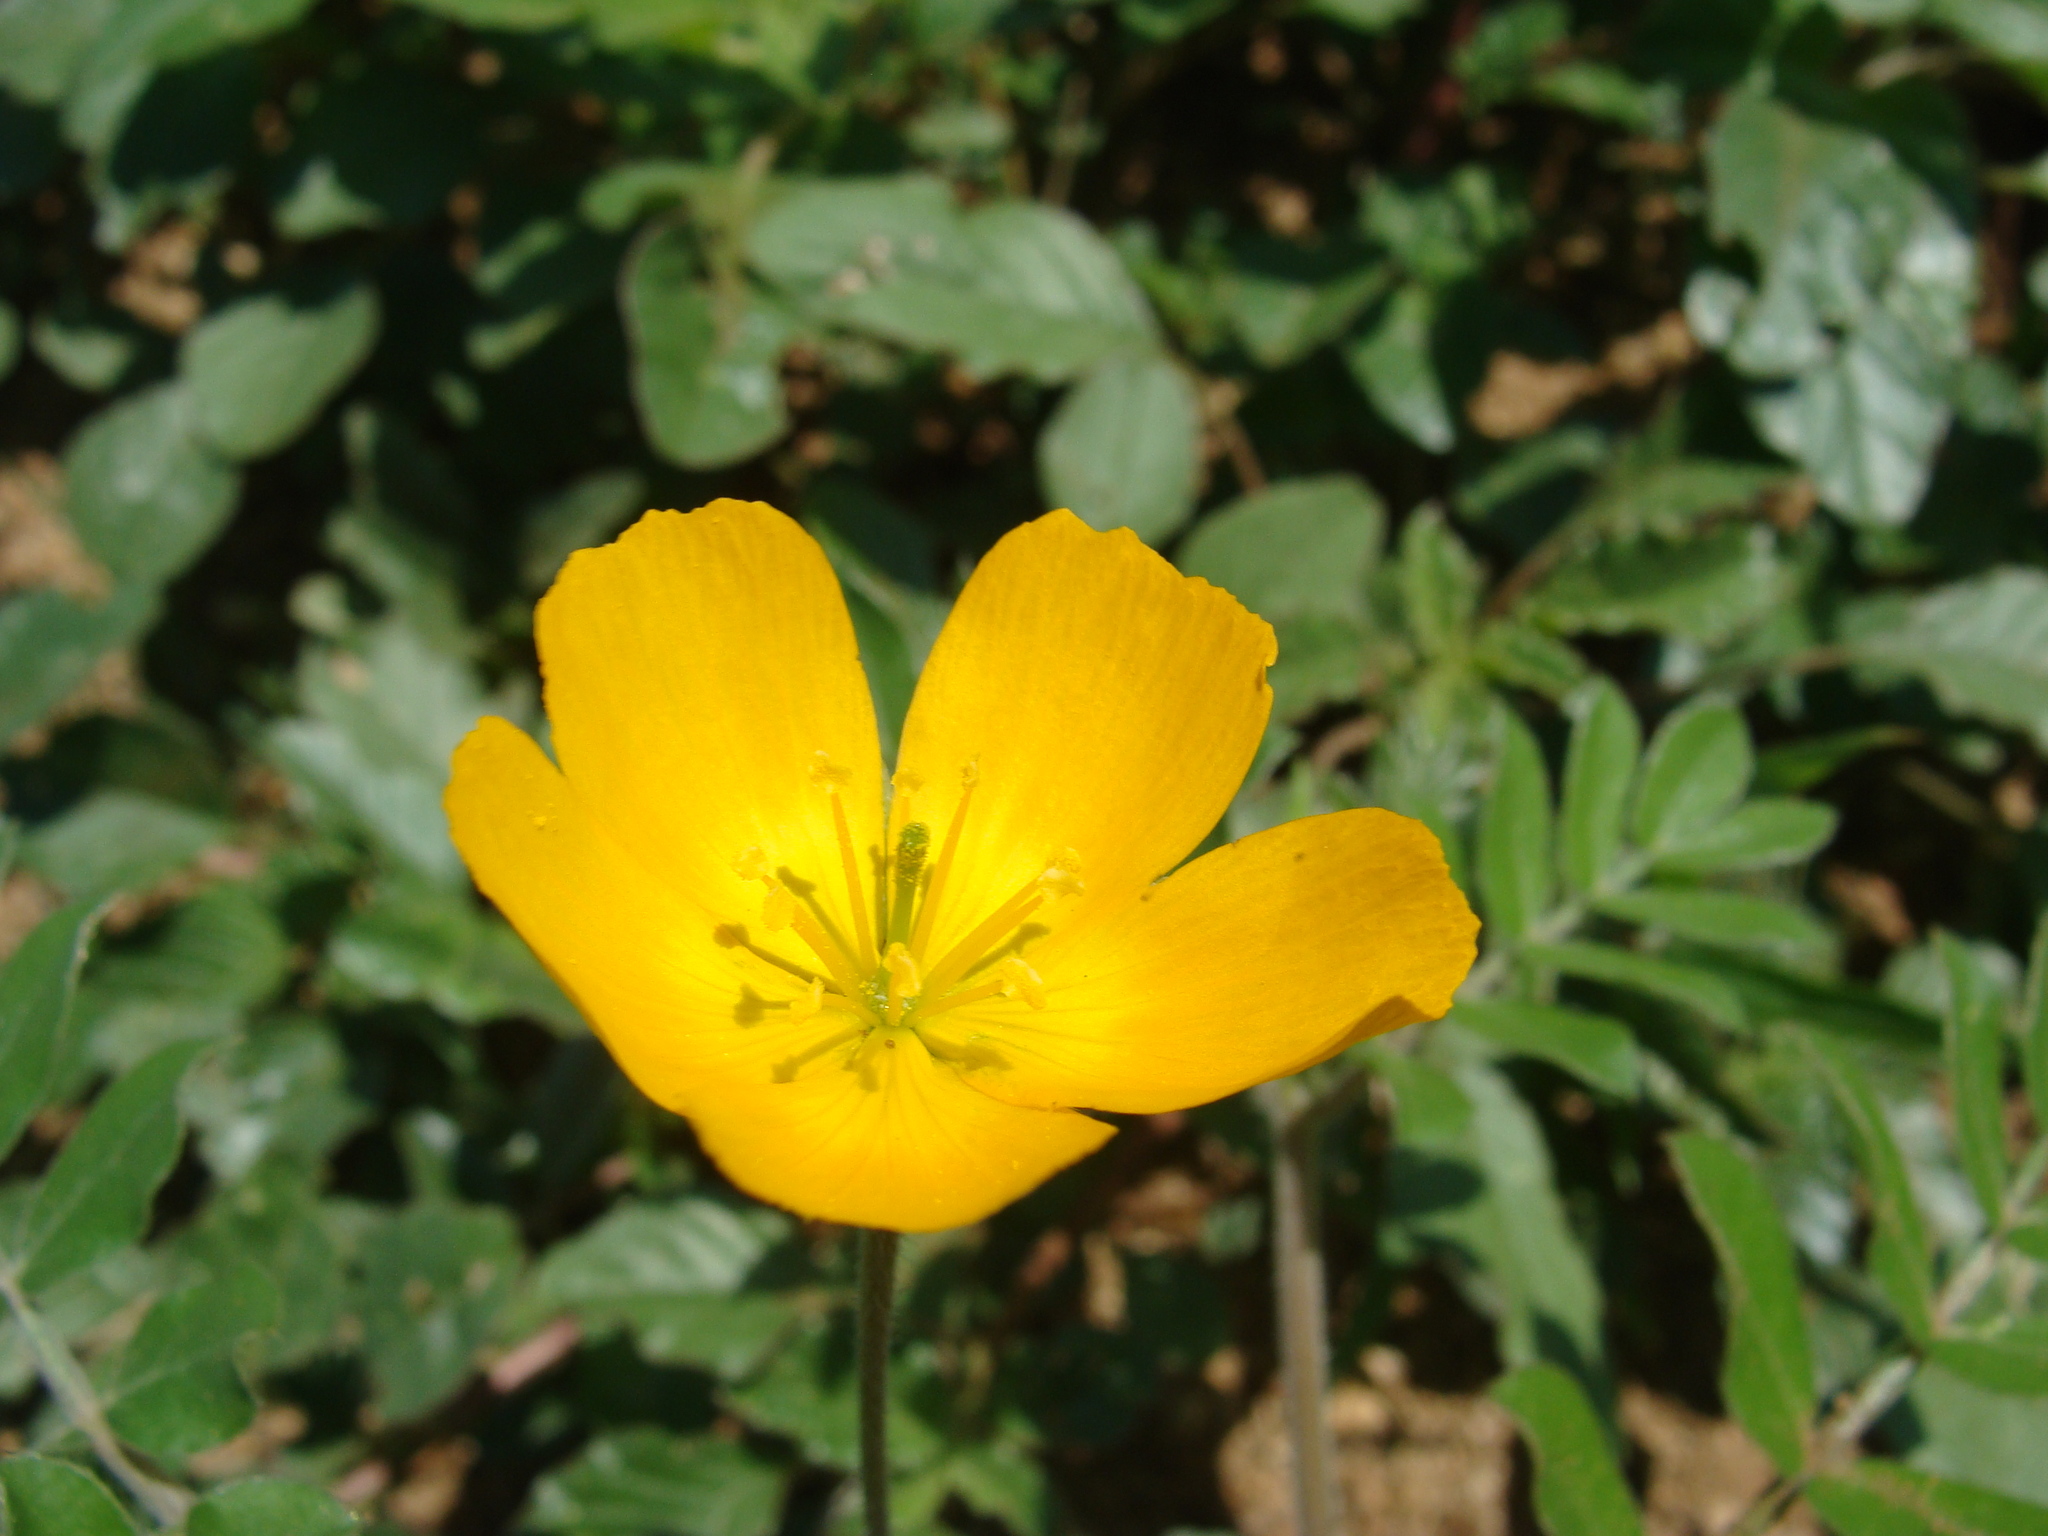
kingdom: Plantae
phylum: Tracheophyta
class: Magnoliopsida
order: Zygophyllales
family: Zygophyllaceae
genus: Kallstroemia
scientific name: Kallstroemia peninsularis
